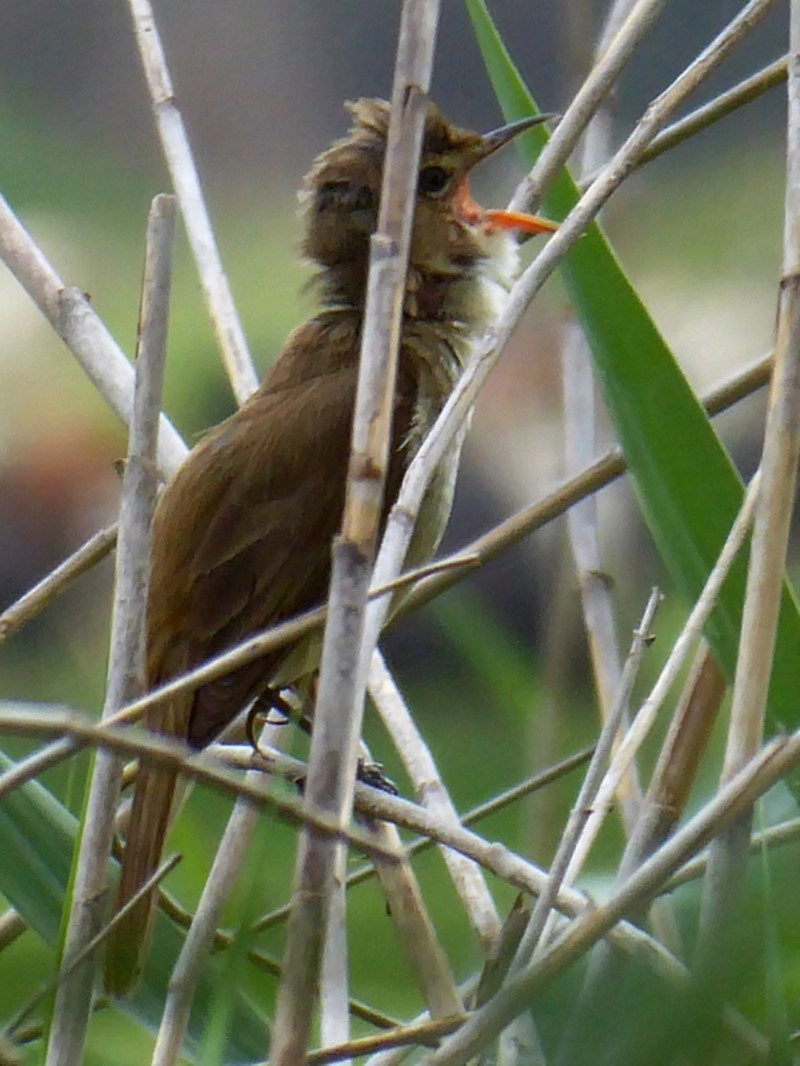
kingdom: Animalia
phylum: Chordata
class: Aves
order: Passeriformes
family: Acrocephalidae
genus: Acrocephalus
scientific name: Acrocephalus australis
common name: Australian reed warbler
